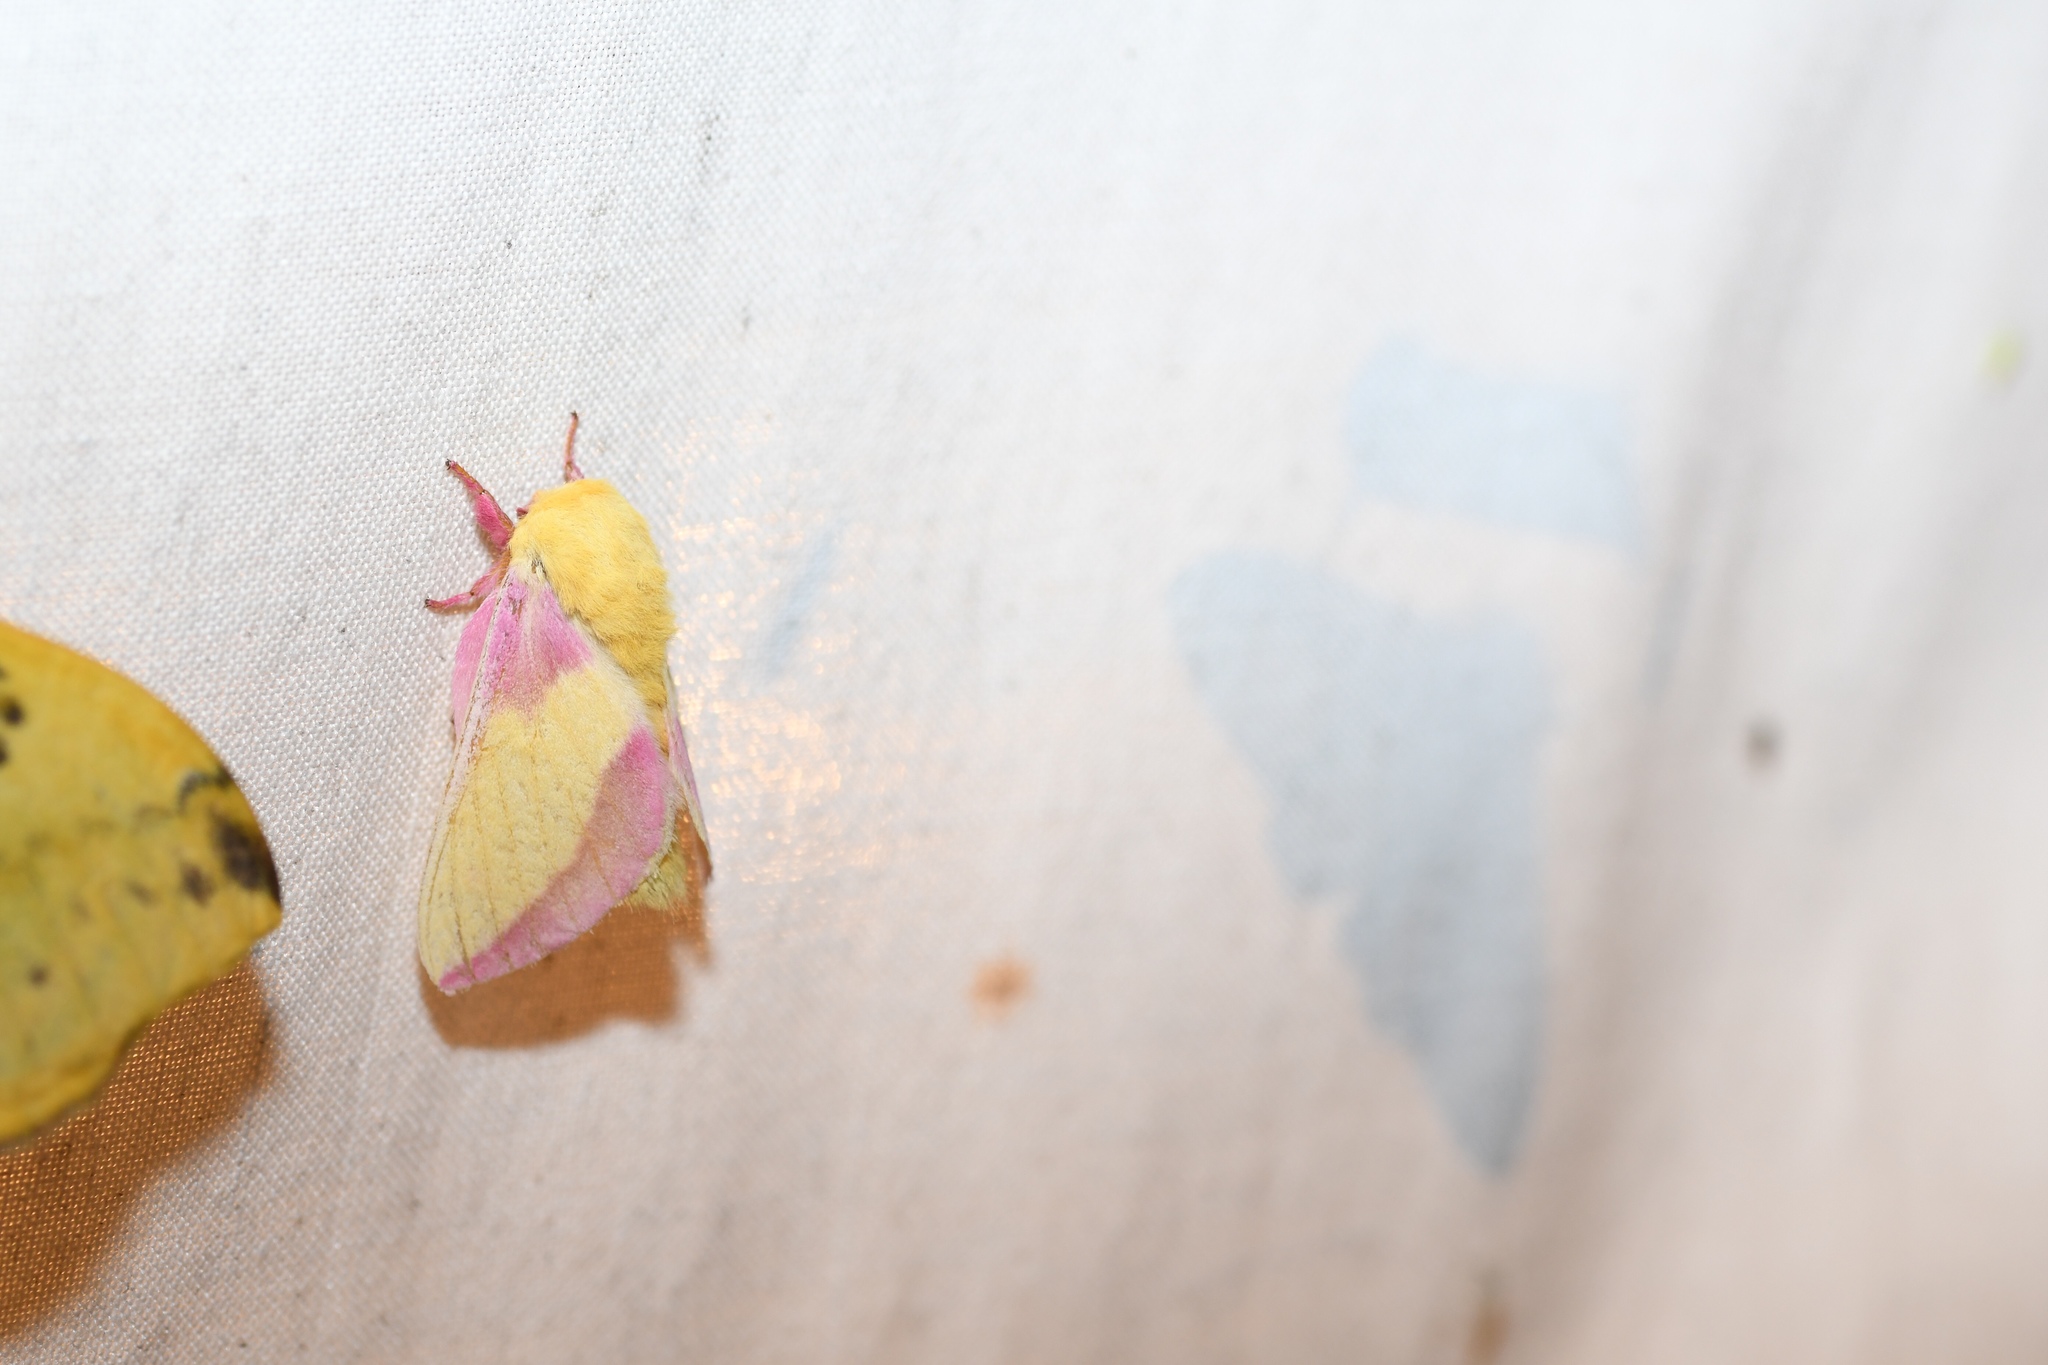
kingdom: Animalia
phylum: Arthropoda
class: Insecta
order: Lepidoptera
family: Saturniidae
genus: Dryocampa
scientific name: Dryocampa rubicunda
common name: Rosy maple moth
